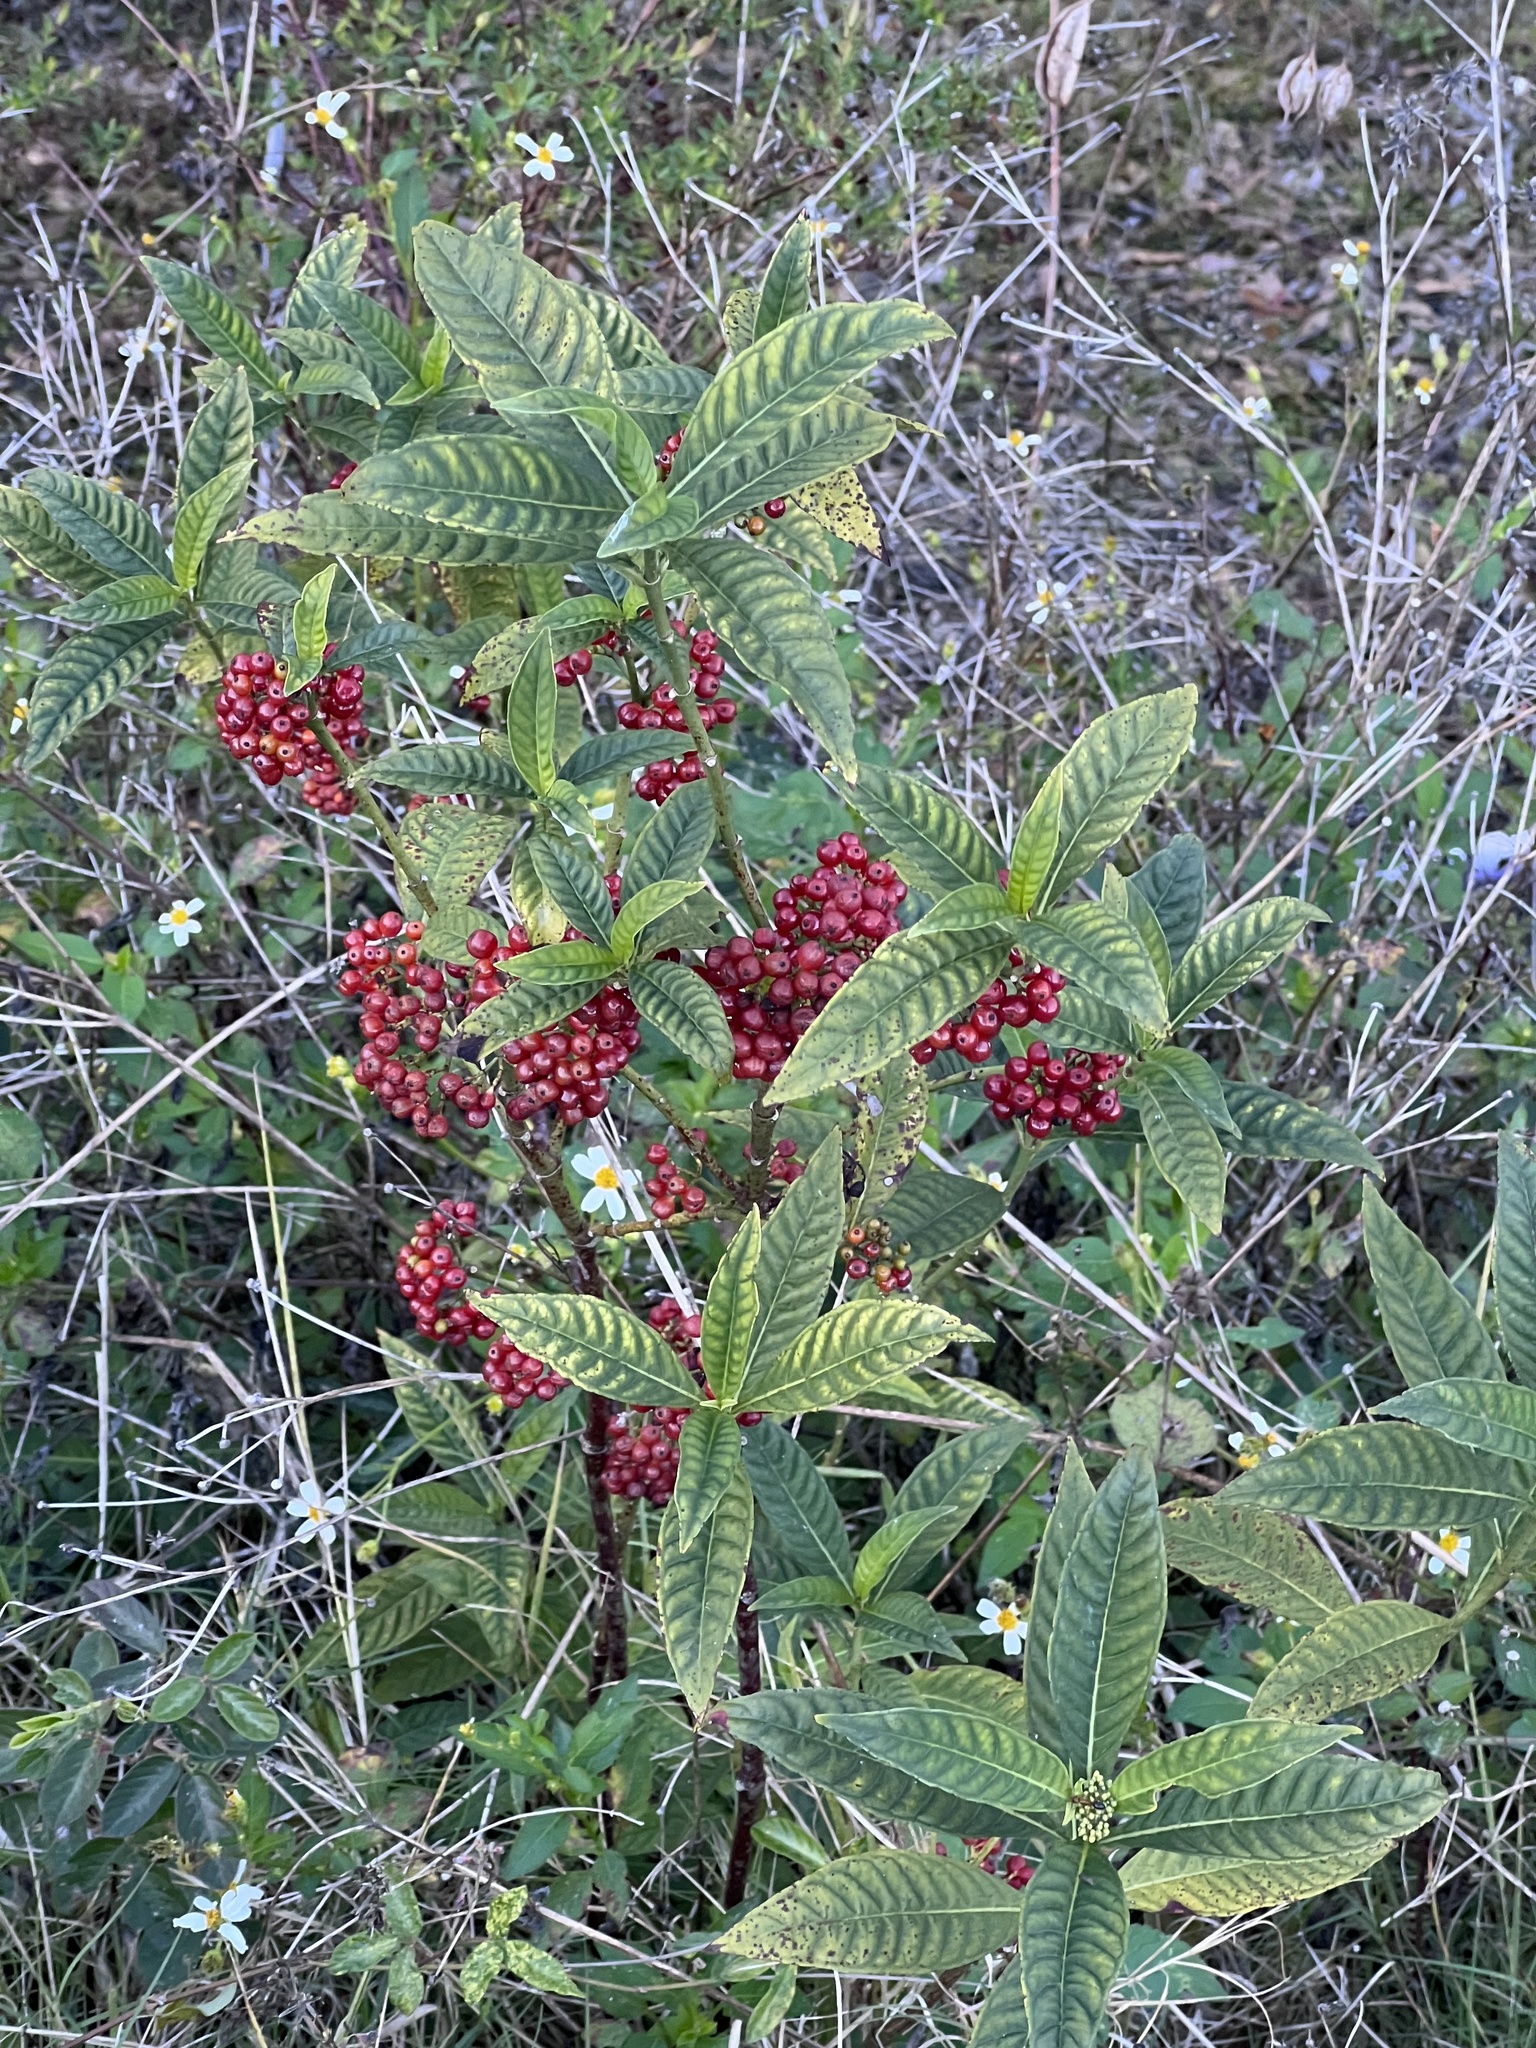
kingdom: Plantae
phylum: Tracheophyta
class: Magnoliopsida
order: Gentianales
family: Rubiaceae
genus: Psychotria
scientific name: Psychotria nervosa
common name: Bastard cankerberry
